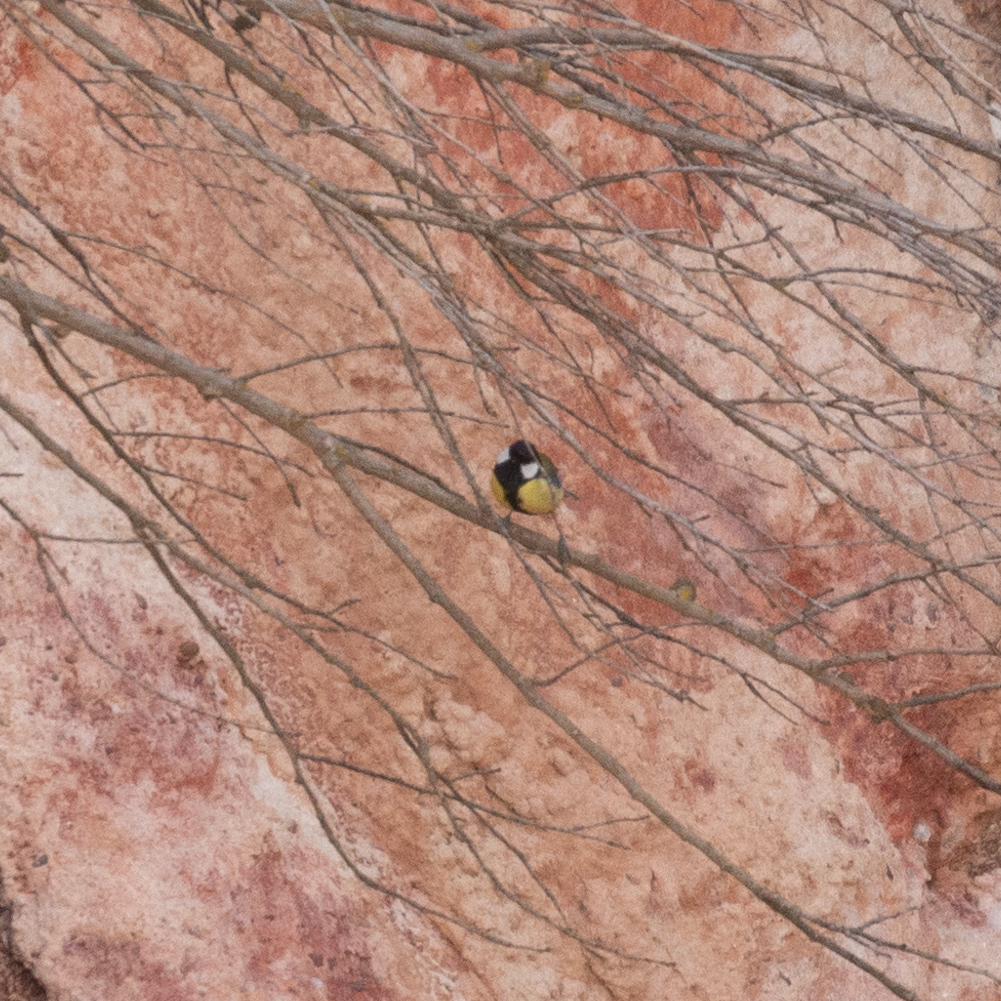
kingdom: Animalia
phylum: Chordata
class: Aves
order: Passeriformes
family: Paridae
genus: Parus
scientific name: Parus major
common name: Great tit
